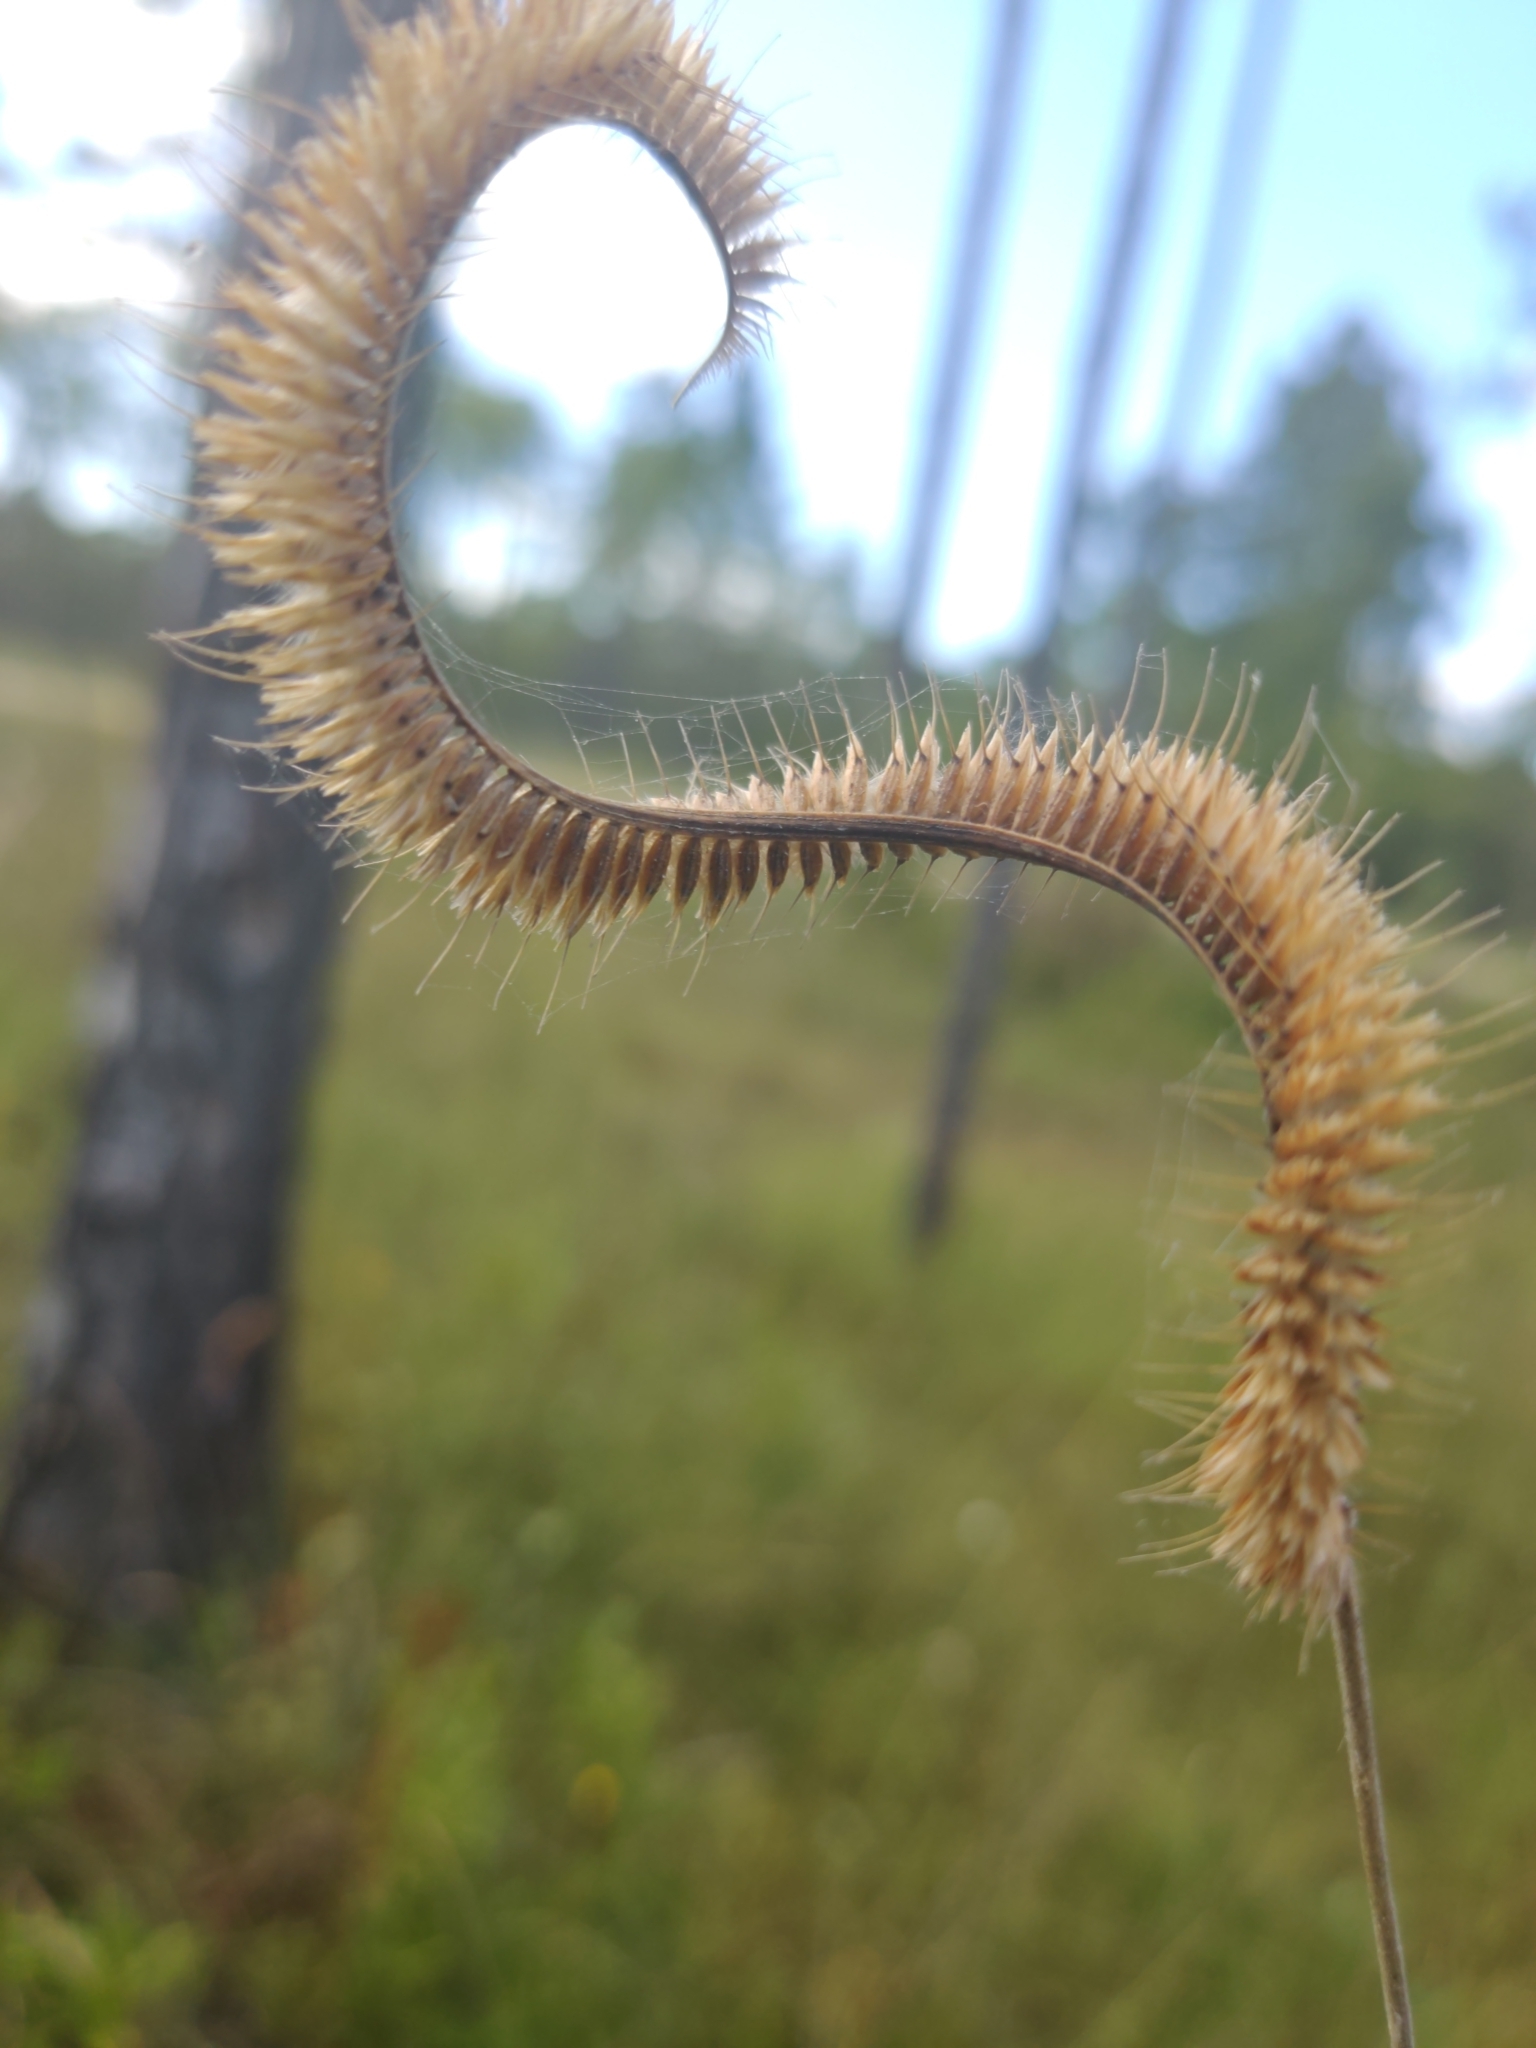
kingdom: Plantae
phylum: Tracheophyta
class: Liliopsida
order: Poales
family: Poaceae
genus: Ctenium
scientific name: Ctenium aromaticum
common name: Toothache grass
